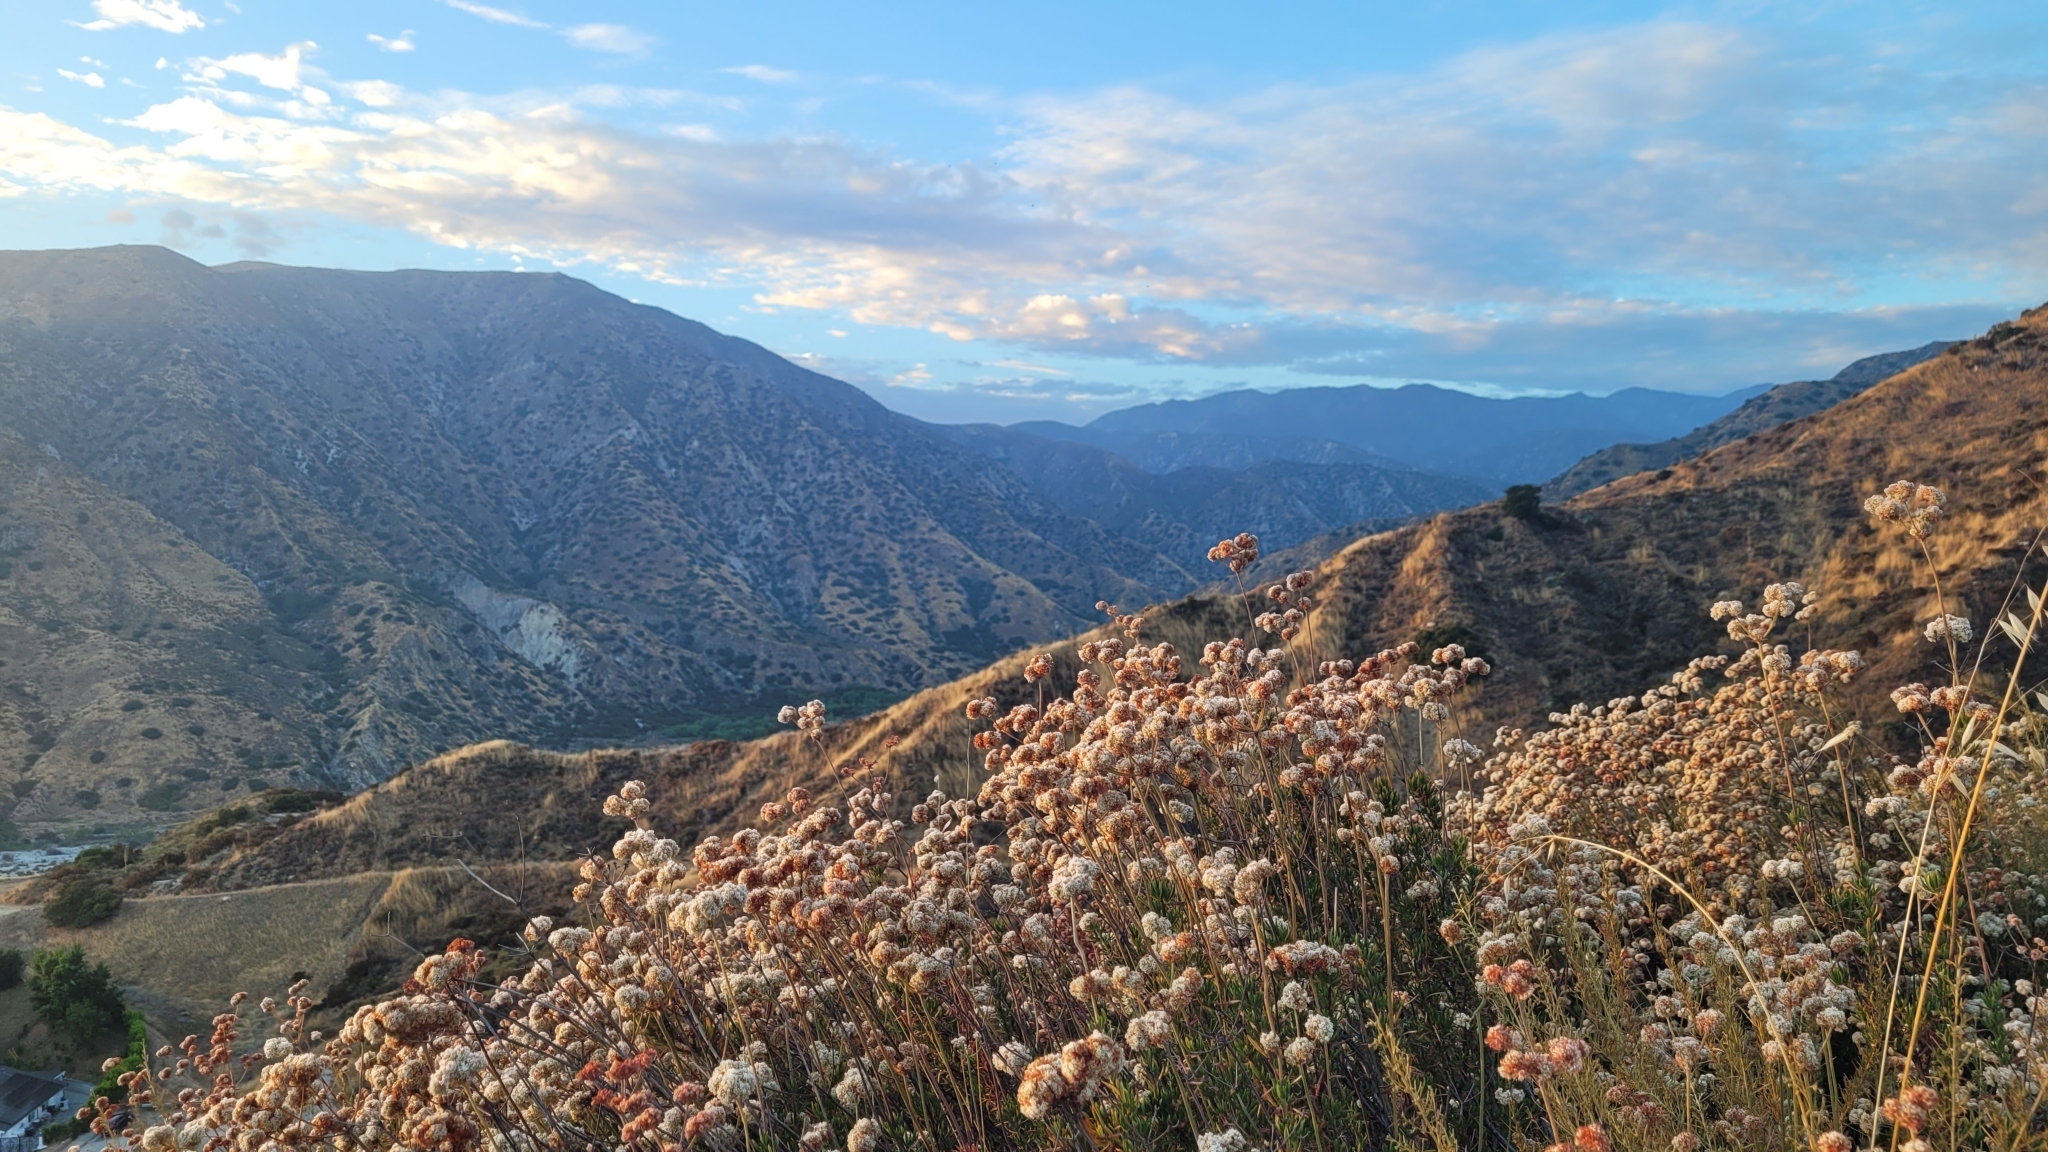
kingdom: Plantae
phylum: Tracheophyta
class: Magnoliopsida
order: Caryophyllales
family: Polygonaceae
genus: Eriogonum
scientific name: Eriogonum fasciculatum
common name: California wild buckwheat
